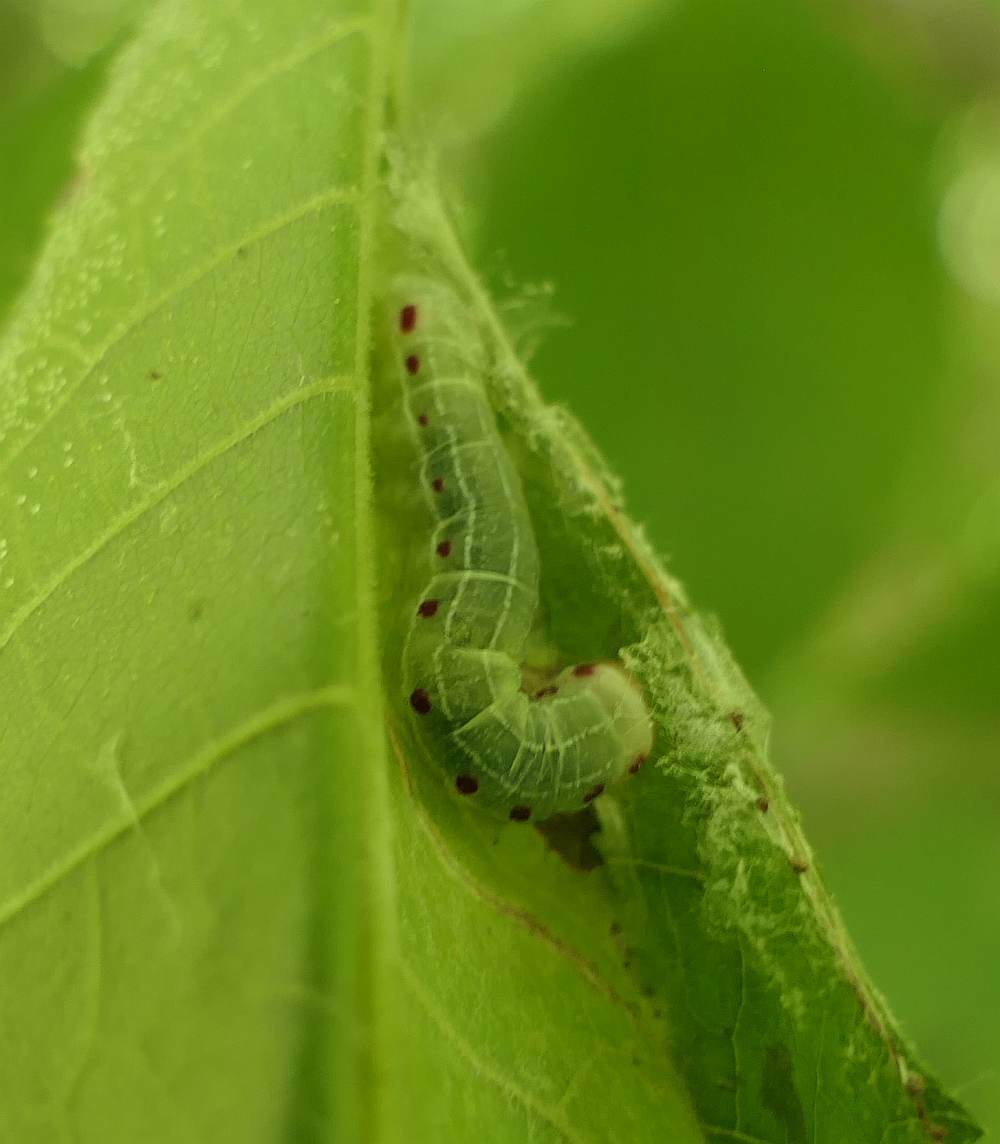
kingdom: Animalia
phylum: Arthropoda
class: Insecta
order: Lepidoptera
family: Noctuidae
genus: Achatia
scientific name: Achatia confusa
